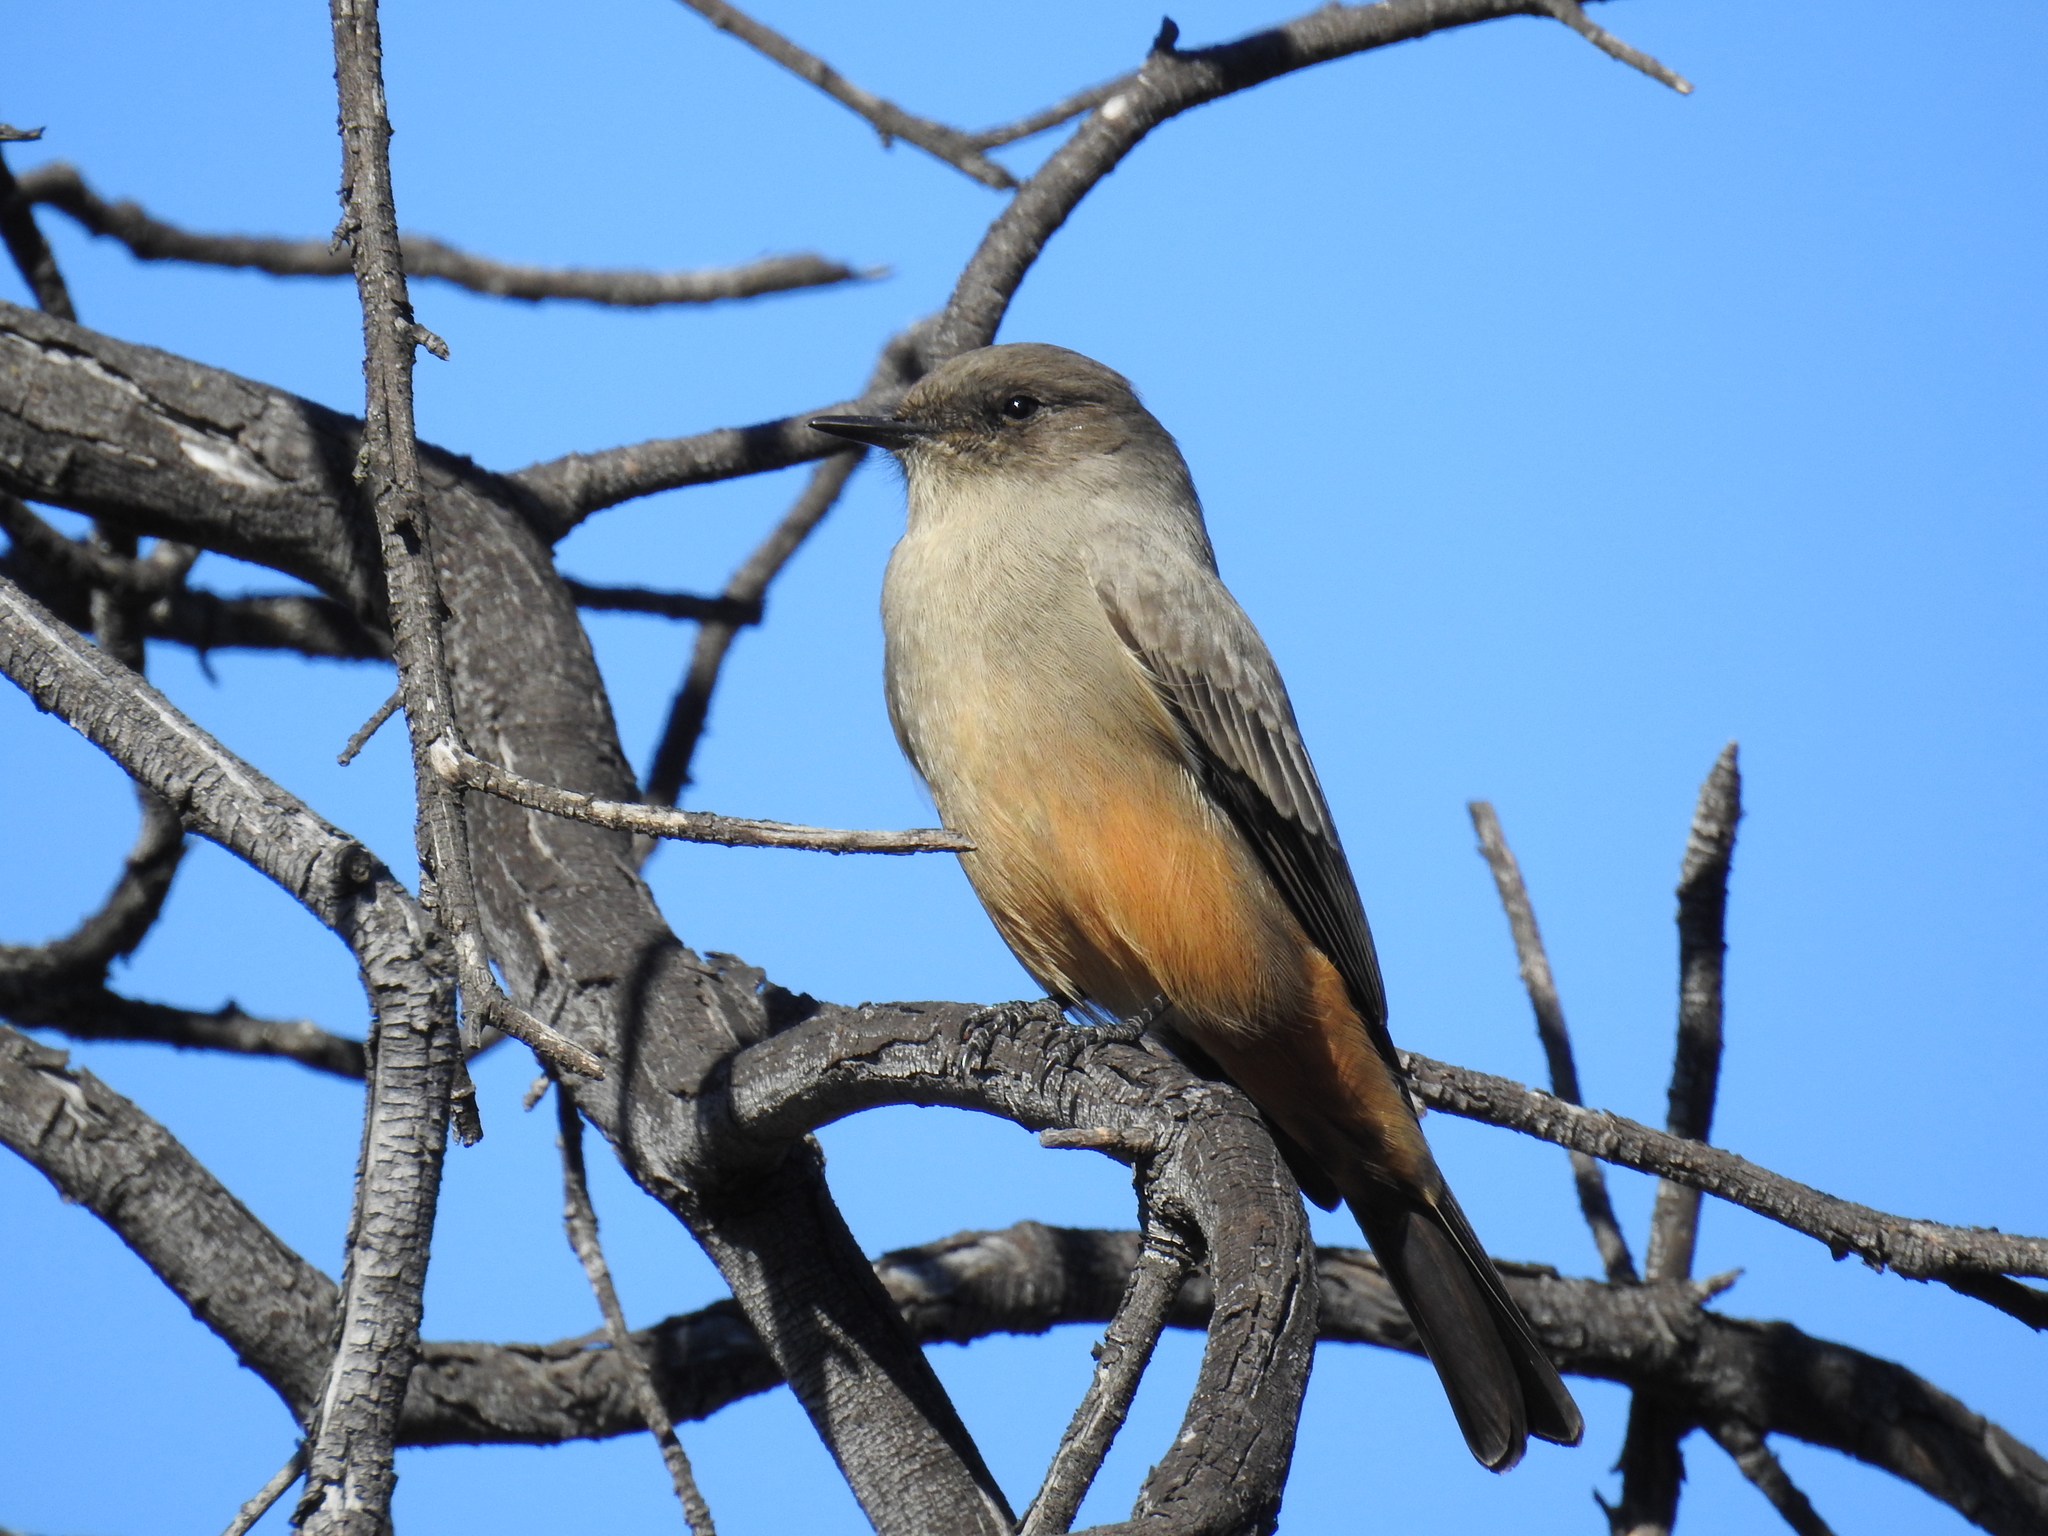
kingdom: Animalia
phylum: Chordata
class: Aves
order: Passeriformes
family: Tyrannidae
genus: Sayornis
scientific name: Sayornis saya
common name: Say's phoebe
